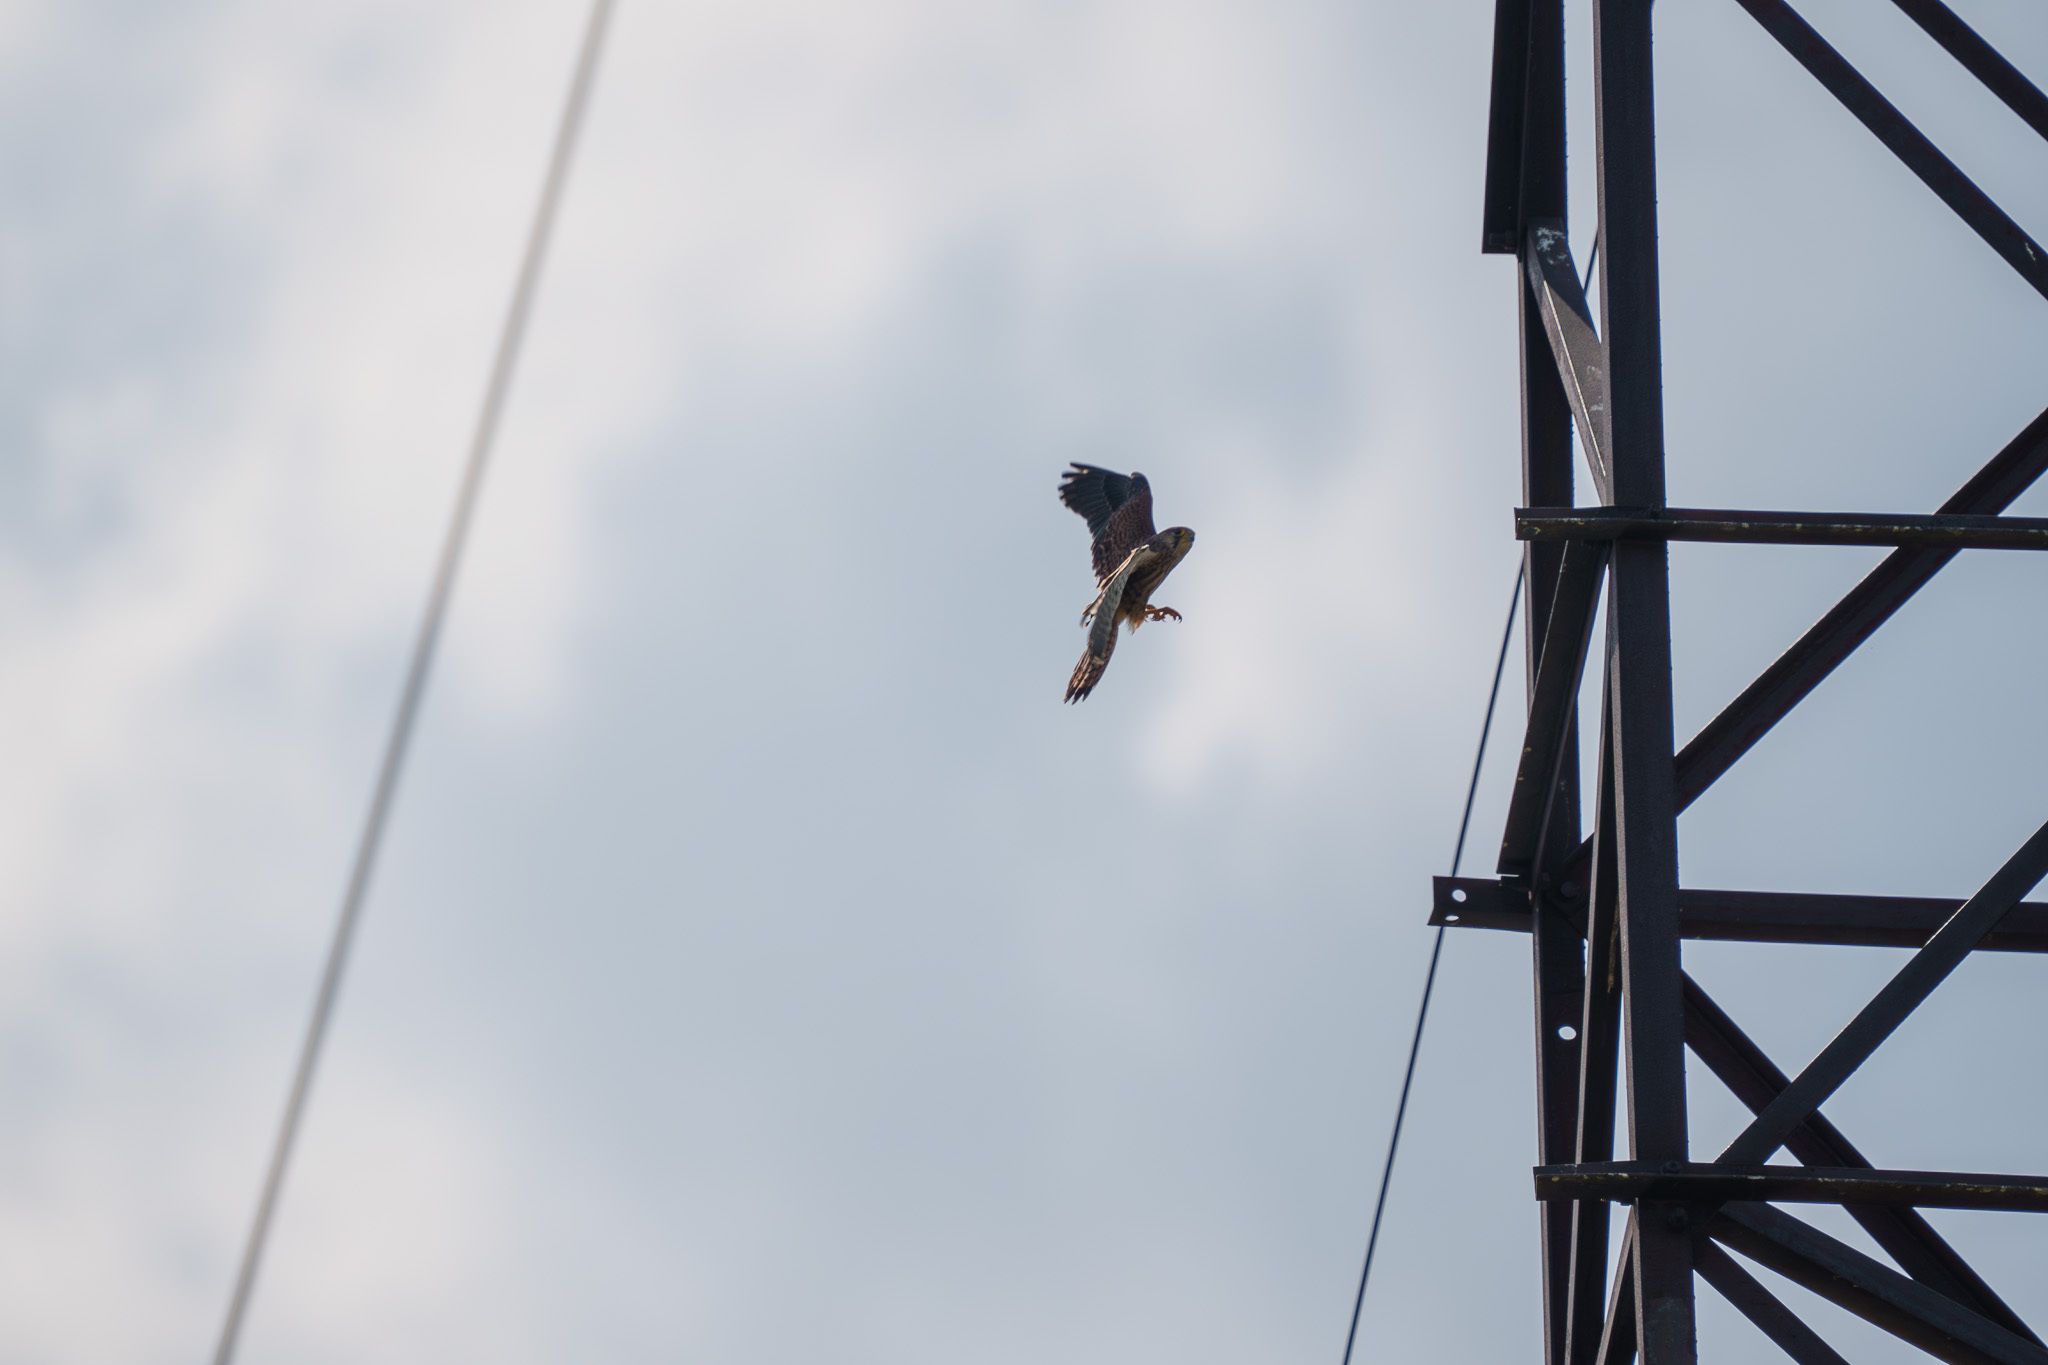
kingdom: Animalia
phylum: Chordata
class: Aves
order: Falconiformes
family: Falconidae
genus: Falco
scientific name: Falco tinnunculus
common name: Common kestrel
